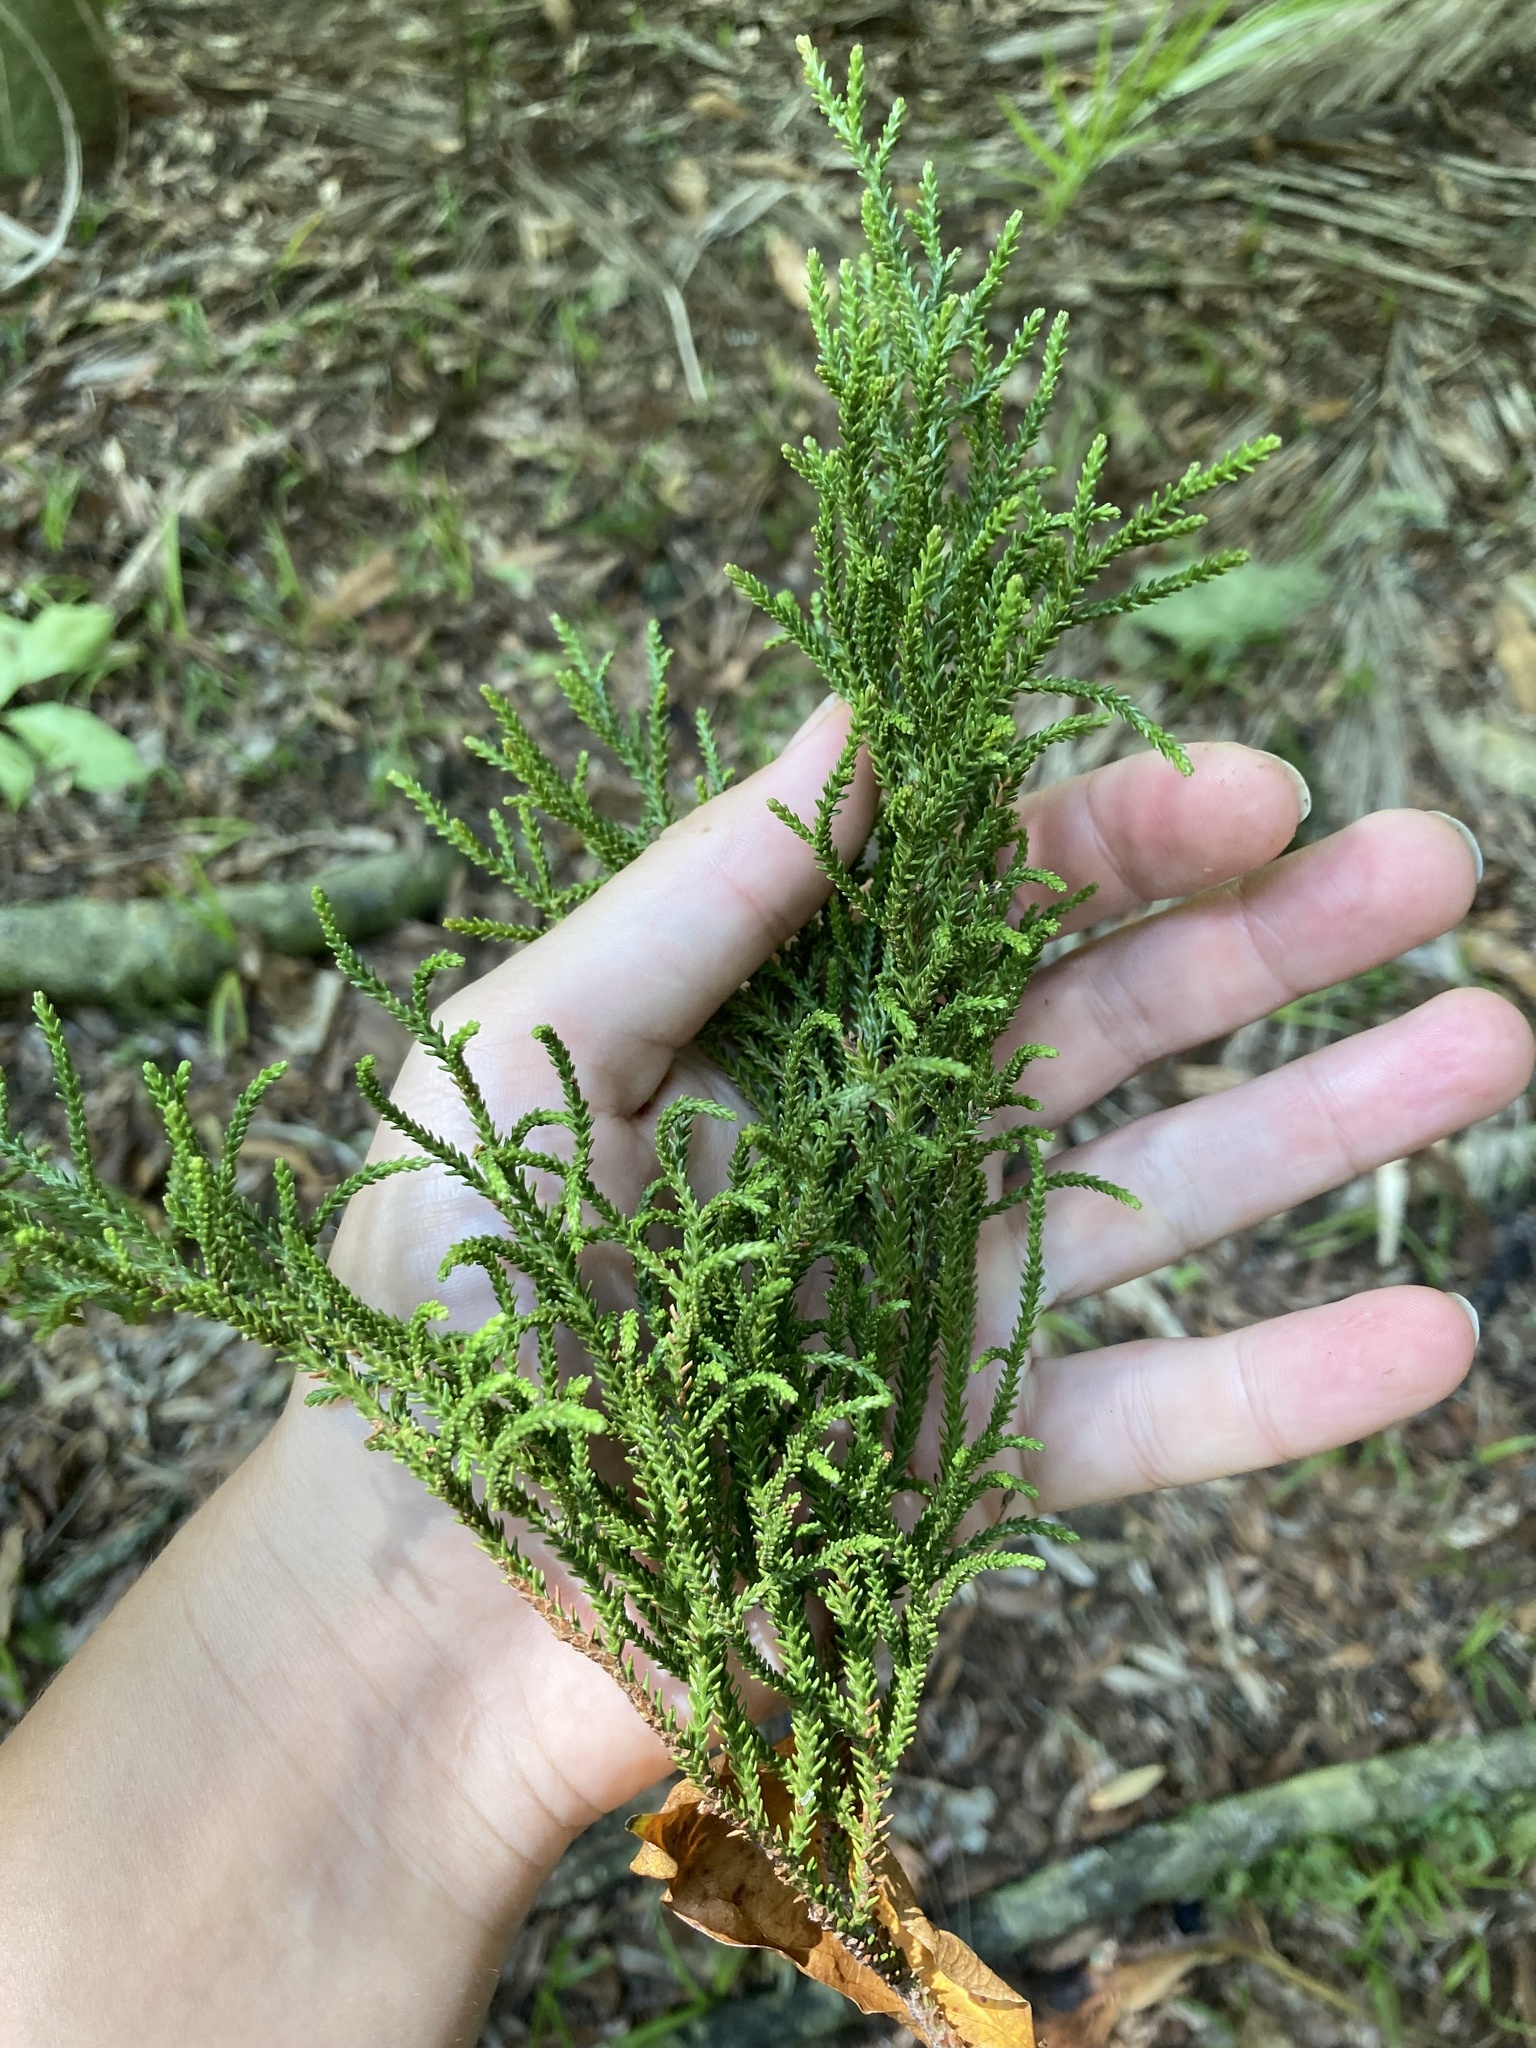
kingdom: Plantae
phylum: Tracheophyta
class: Pinopsida
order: Pinales
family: Podocarpaceae
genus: Dacrydium
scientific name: Dacrydium cupressinum
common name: Red pine
